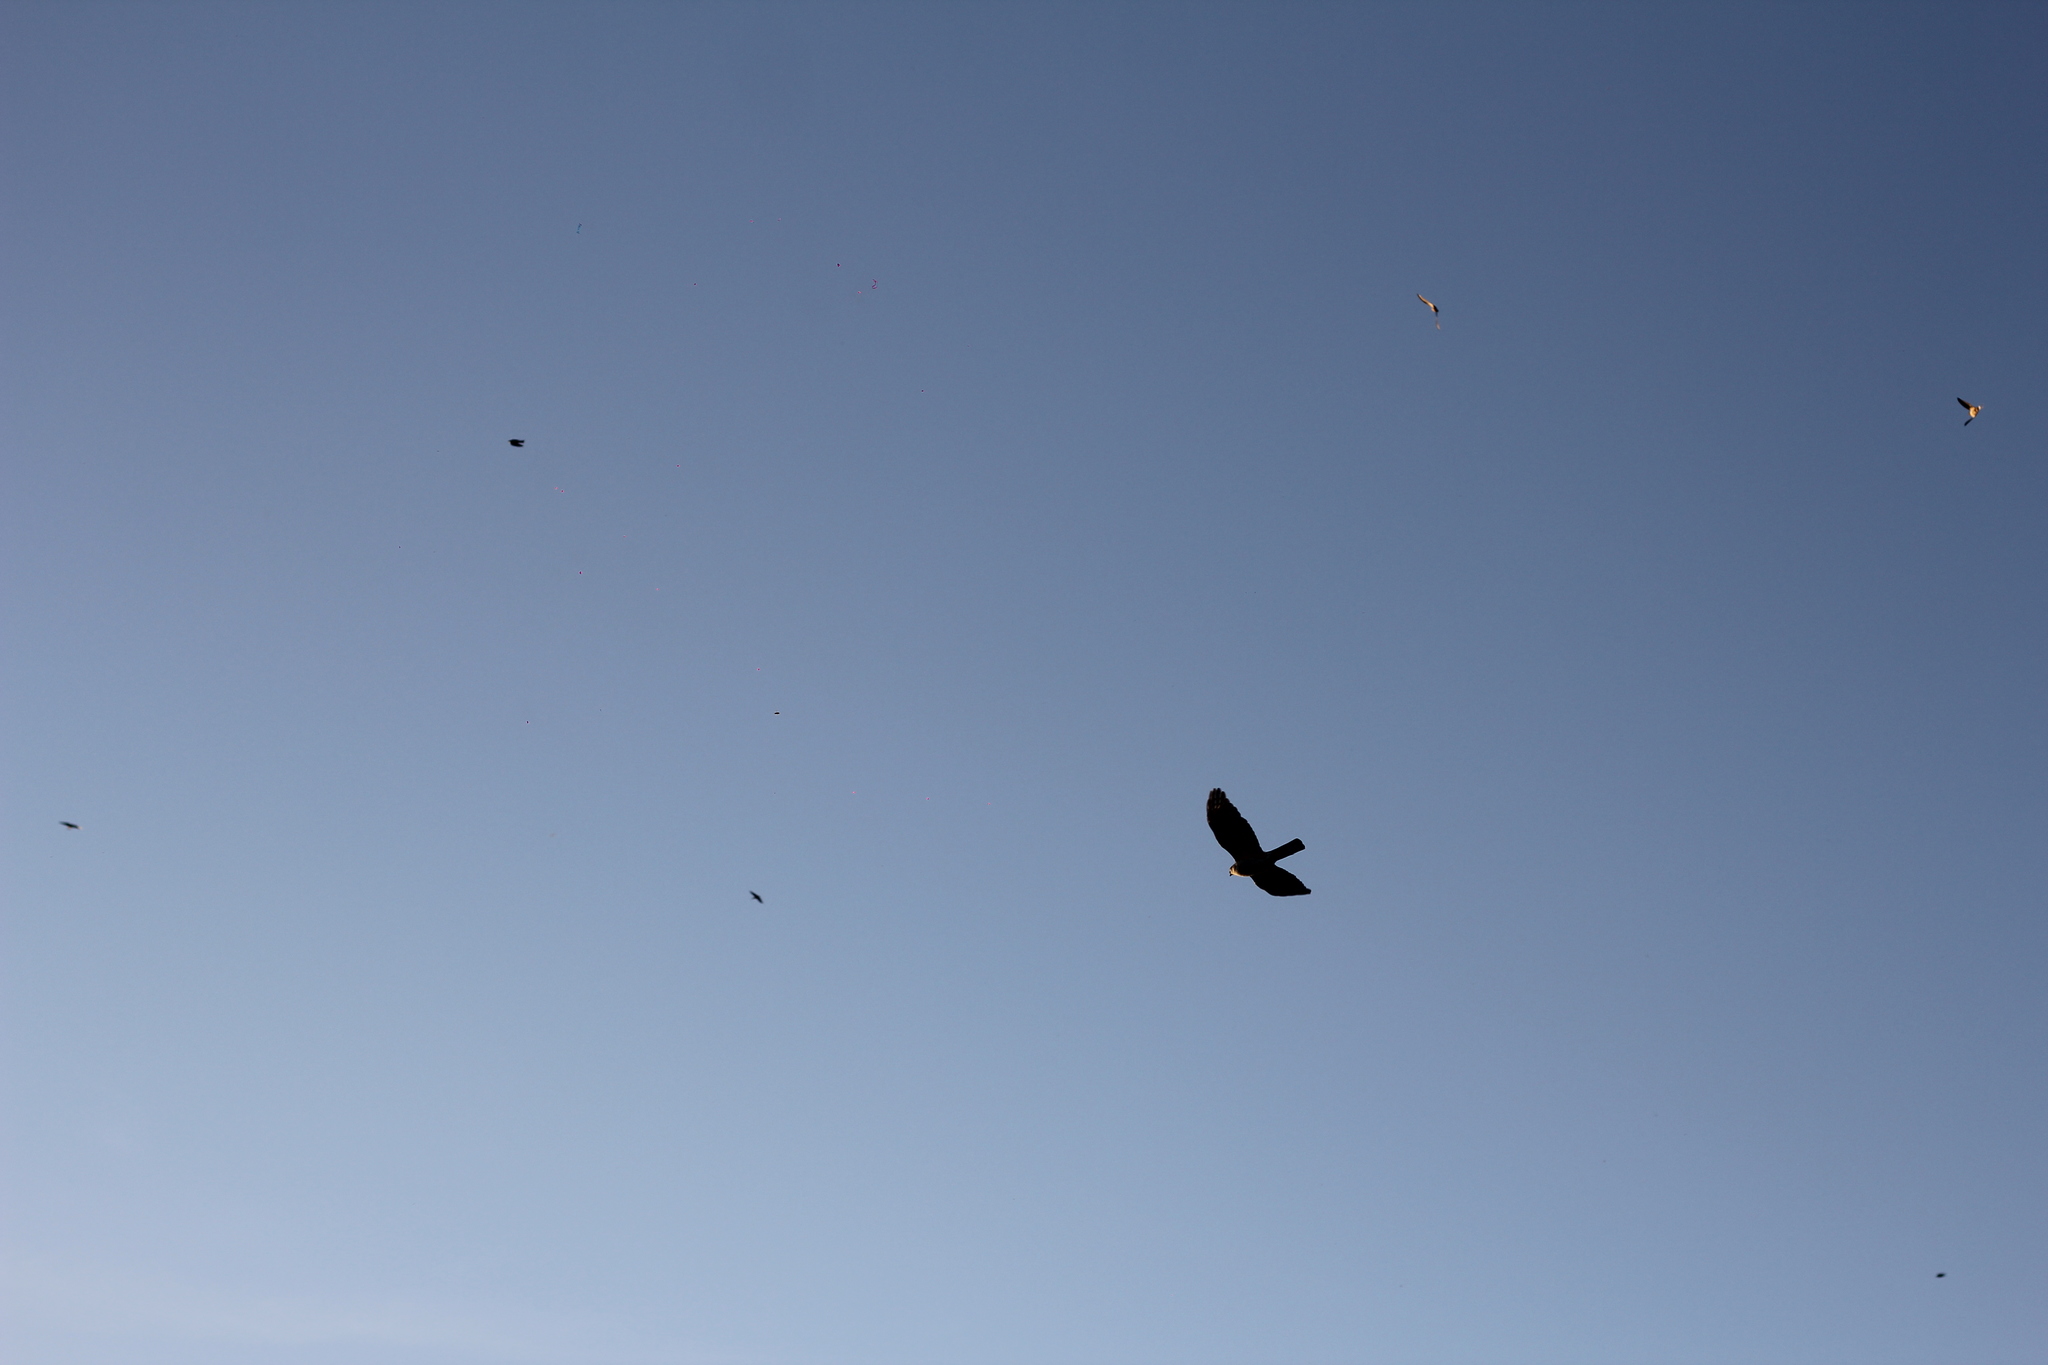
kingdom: Animalia
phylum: Chordata
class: Aves
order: Accipitriformes
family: Accipitridae
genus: Accipiter
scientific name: Accipiter striatus
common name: Sharp-shinned hawk
